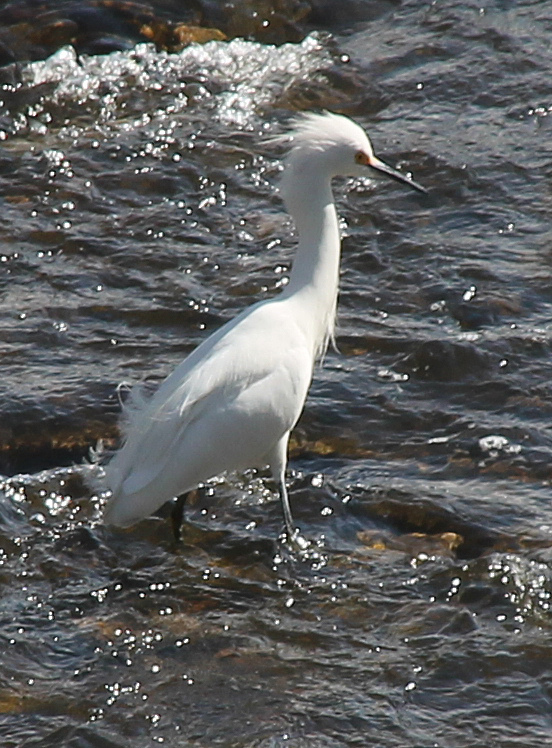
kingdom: Animalia
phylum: Chordata
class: Aves
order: Pelecaniformes
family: Ardeidae
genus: Egretta
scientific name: Egretta thula
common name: Snowy egret
